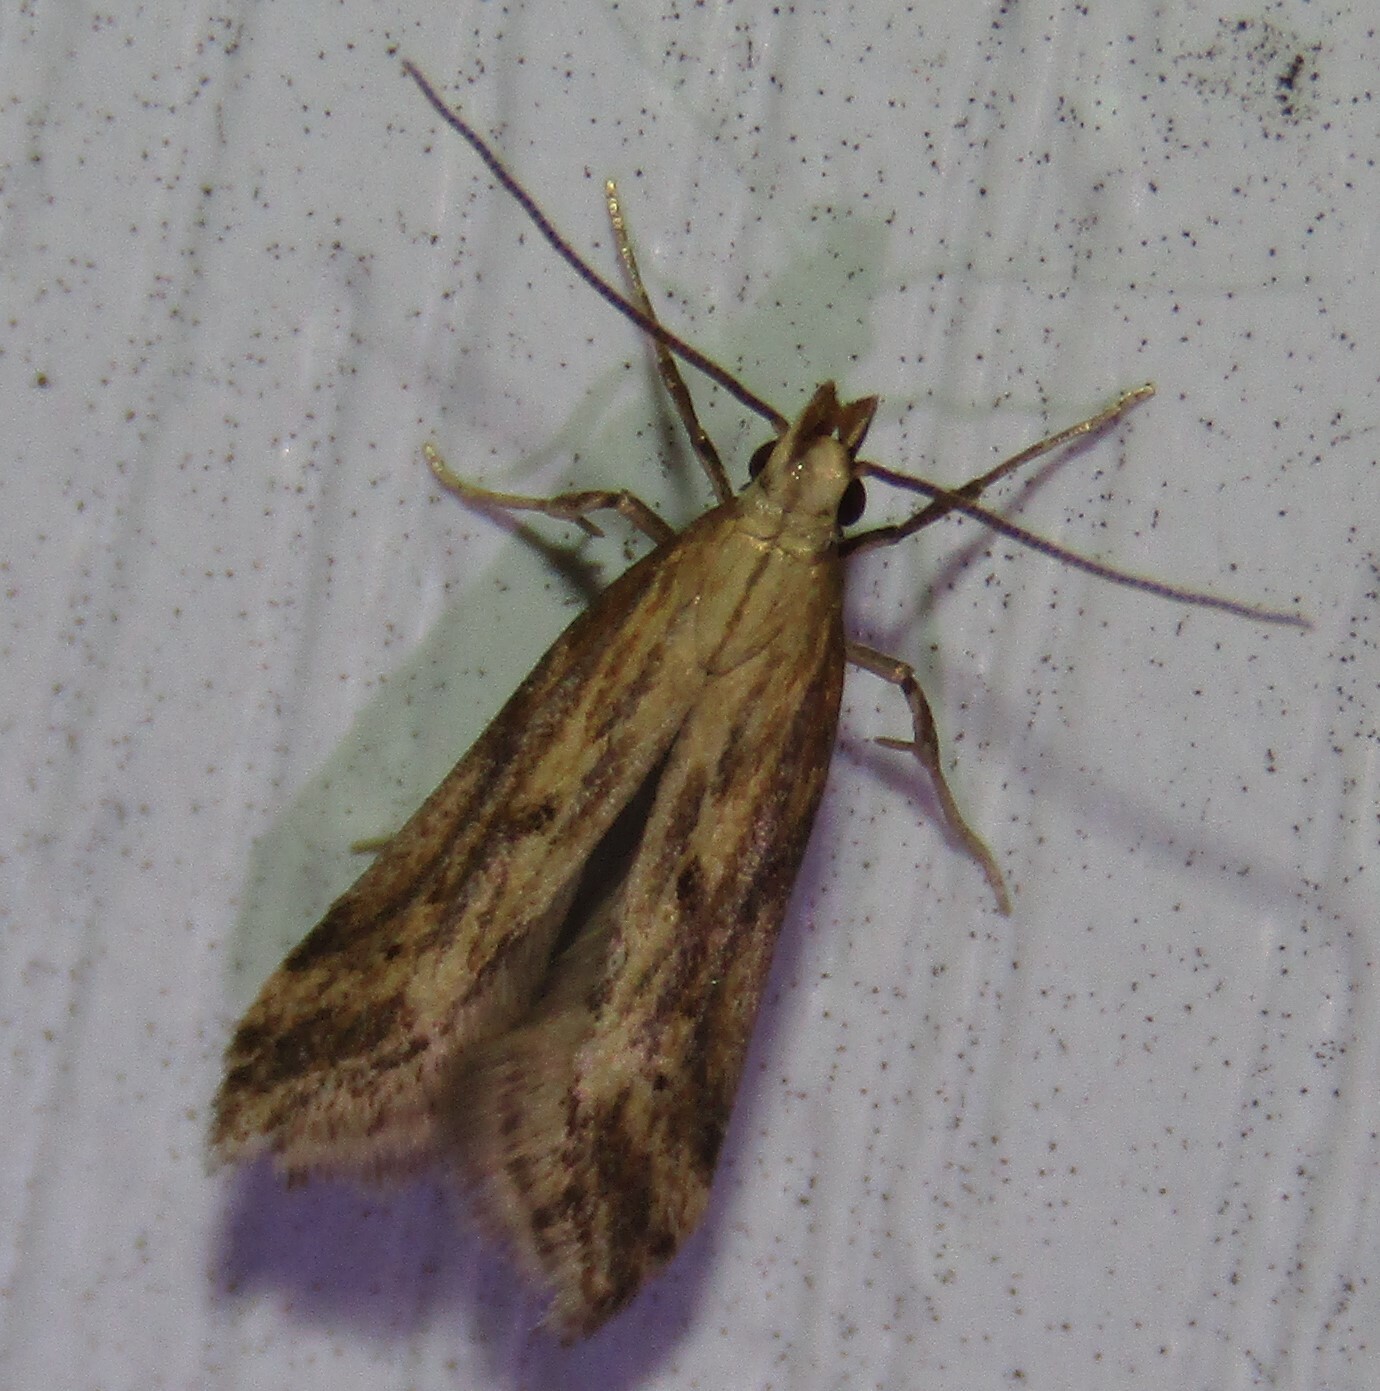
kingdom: Animalia
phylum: Arthropoda
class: Insecta
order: Lepidoptera
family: Gelechiidae
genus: Metzneria
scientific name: Metzneria lappella
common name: Burdock neb
